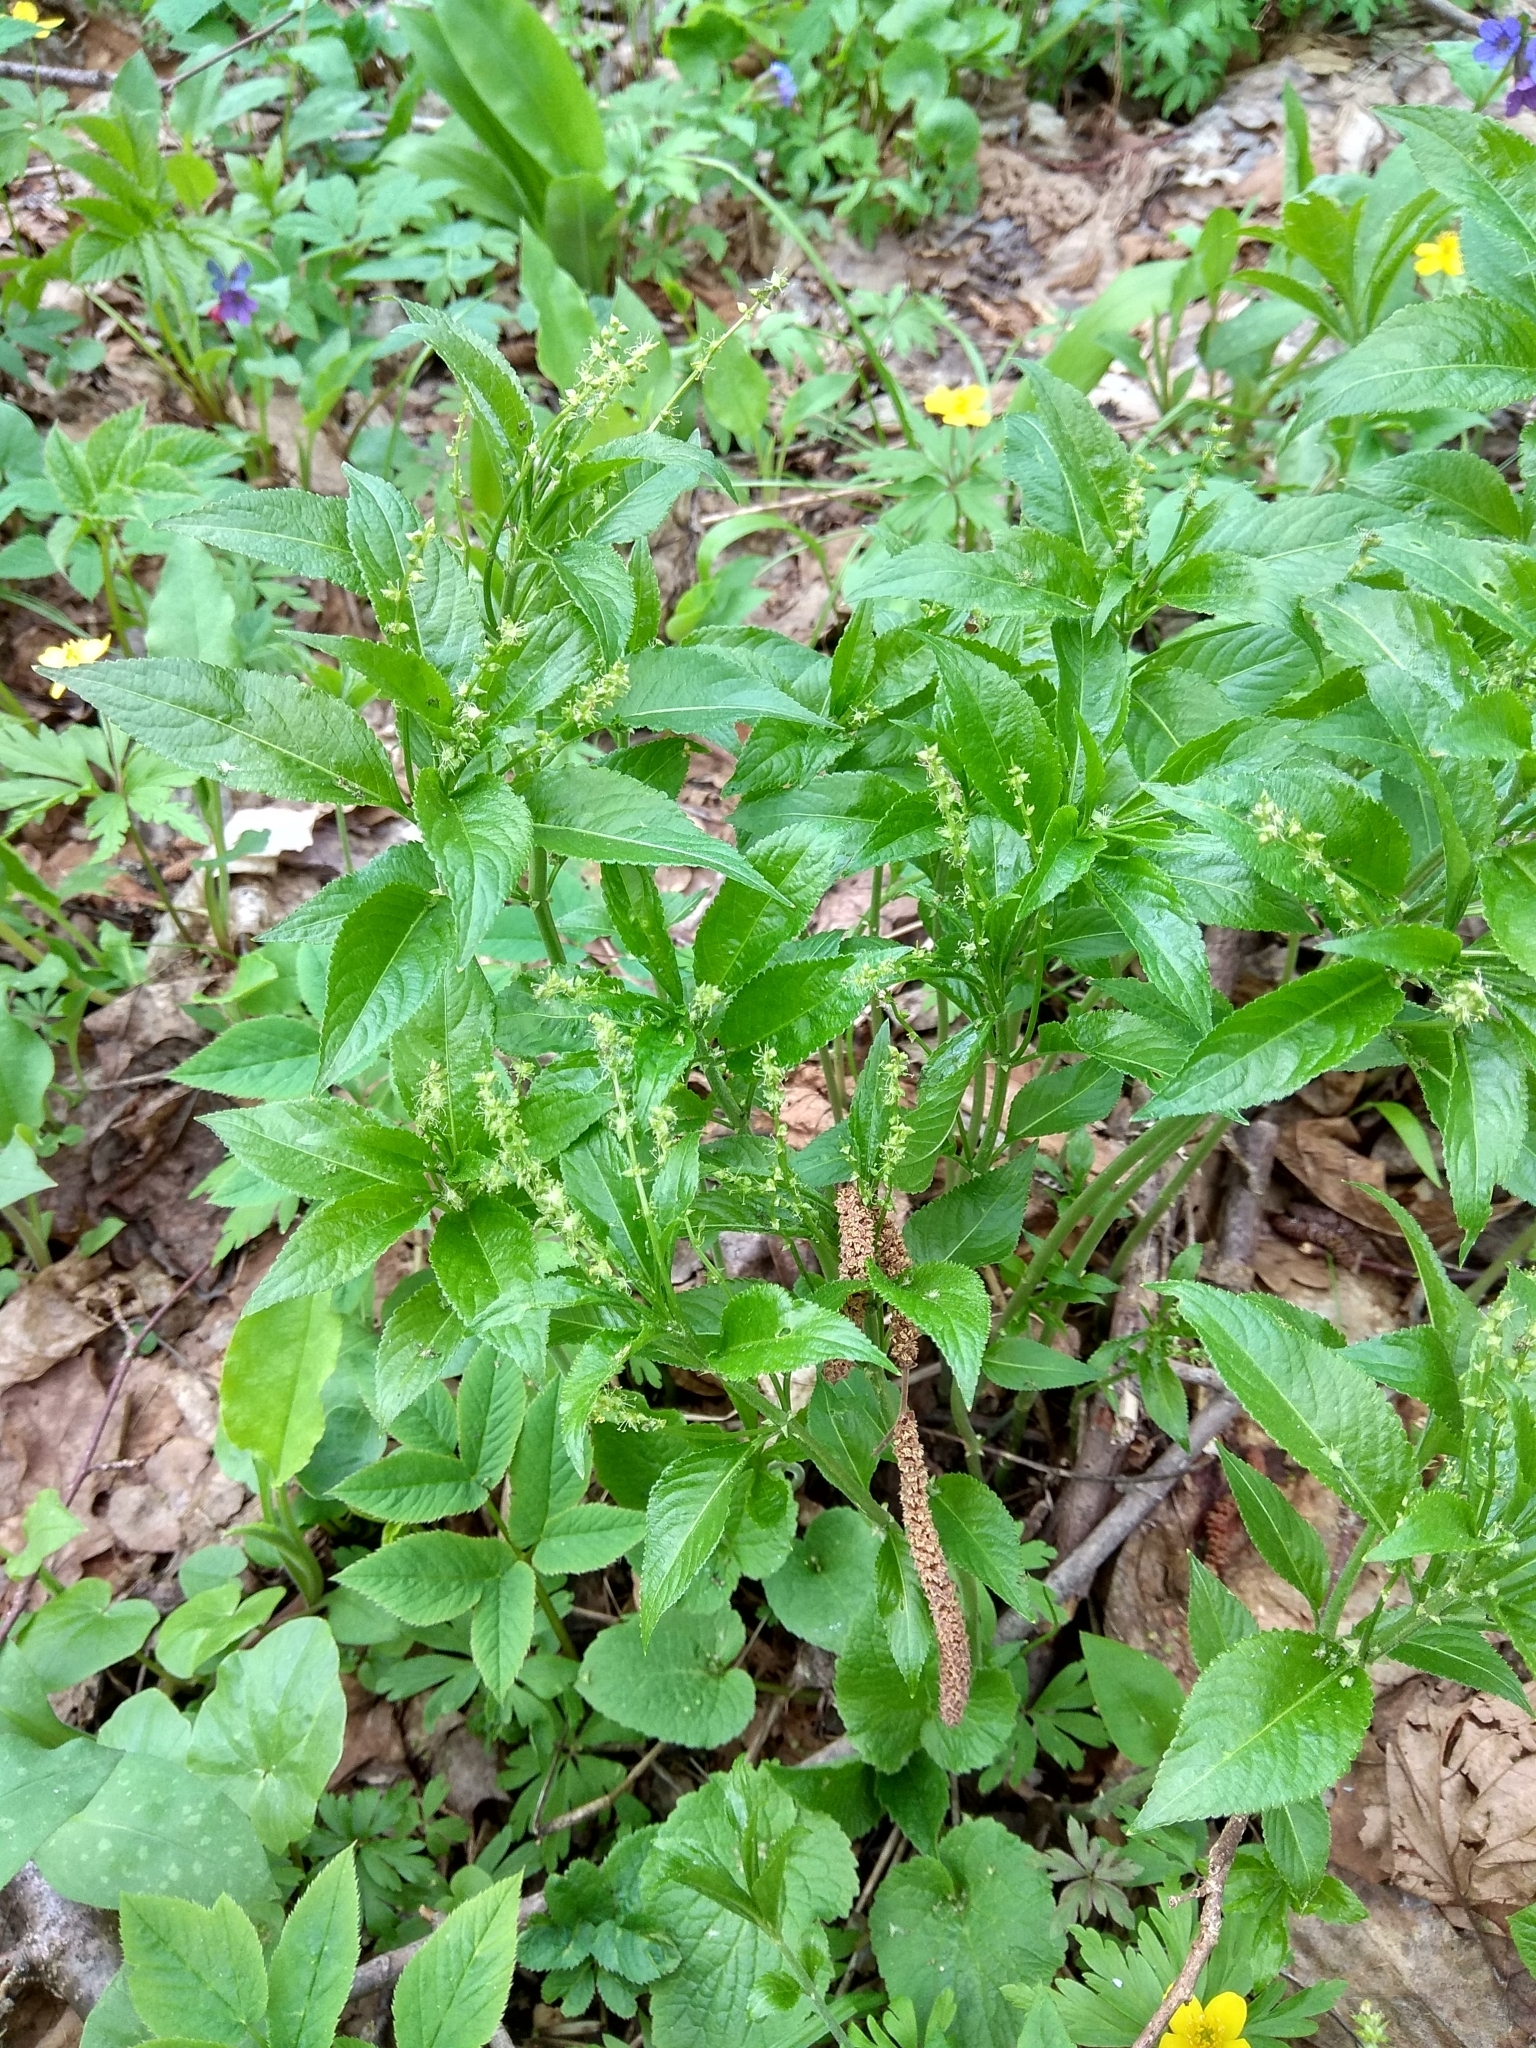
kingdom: Plantae
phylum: Tracheophyta
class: Magnoliopsida
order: Malpighiales
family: Euphorbiaceae
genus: Mercurialis
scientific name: Mercurialis perennis
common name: Dog mercury
